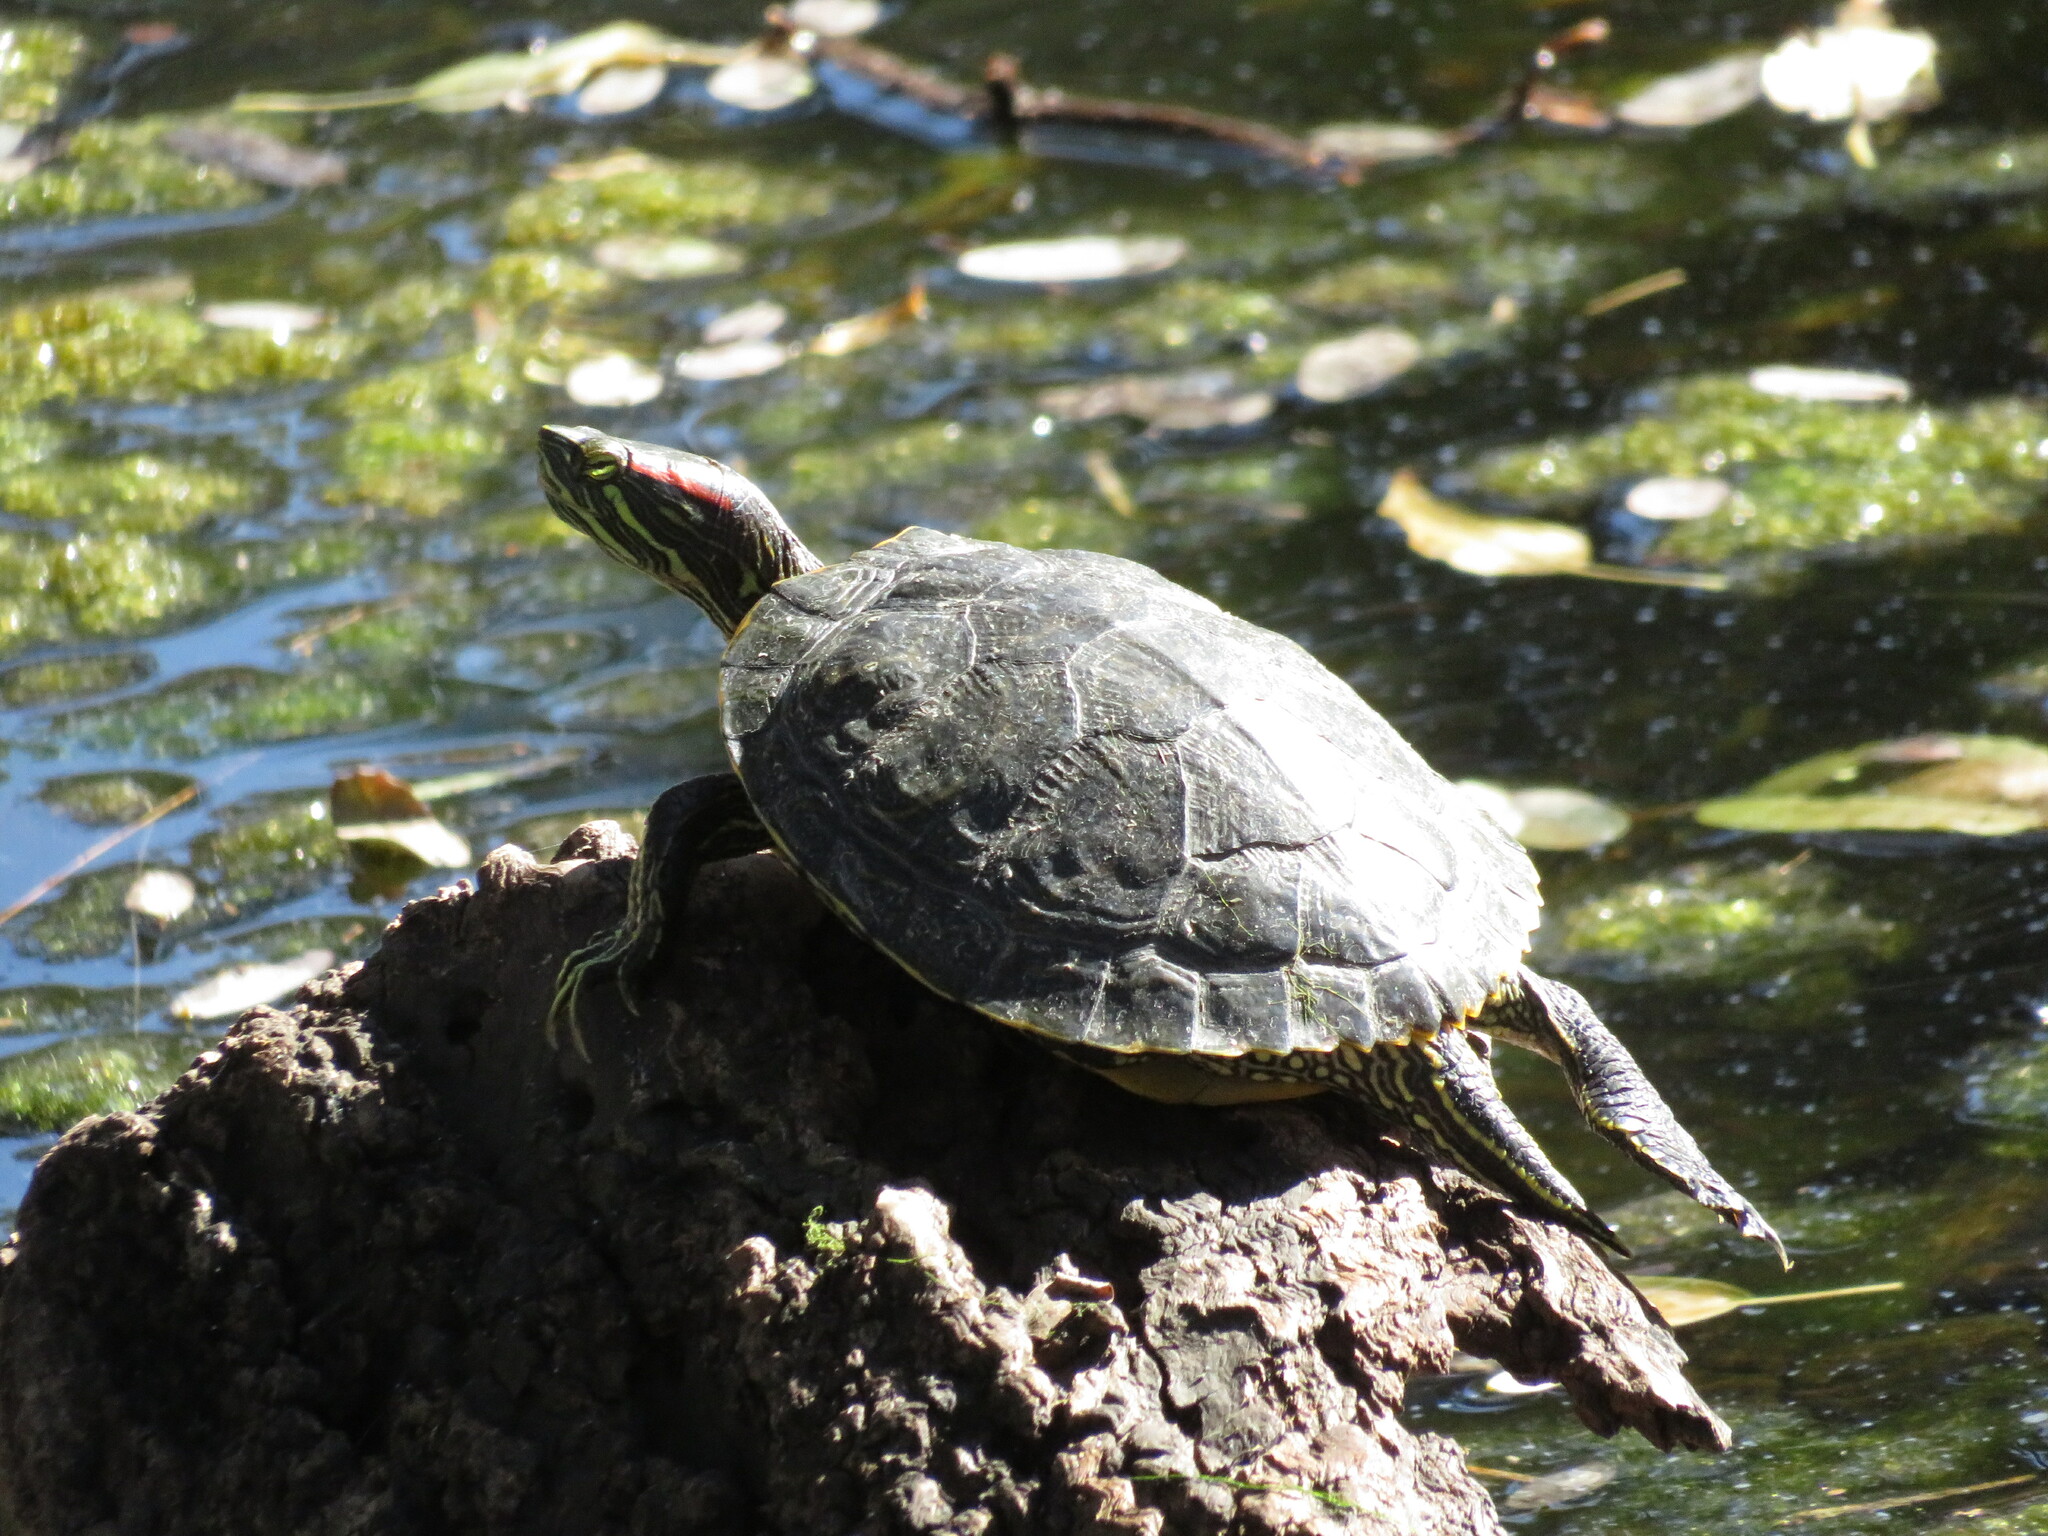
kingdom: Animalia
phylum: Chordata
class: Testudines
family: Emydidae
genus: Trachemys
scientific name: Trachemys scripta
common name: Slider
